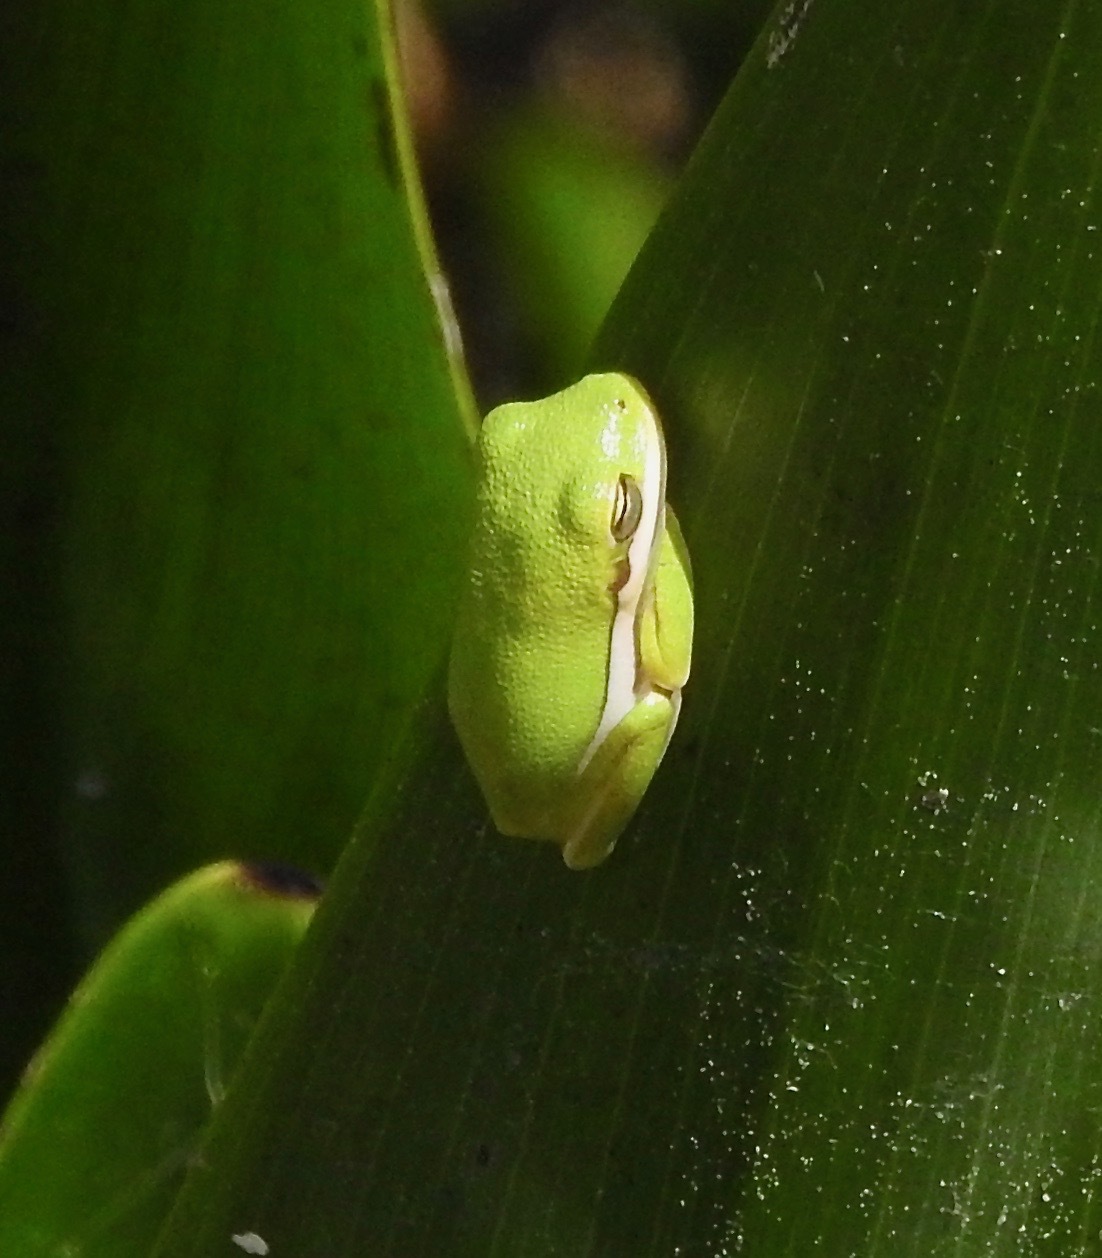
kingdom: Animalia
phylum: Chordata
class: Amphibia
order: Anura
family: Hylidae
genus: Dryophytes
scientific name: Dryophytes cinereus
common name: Green treefrog
